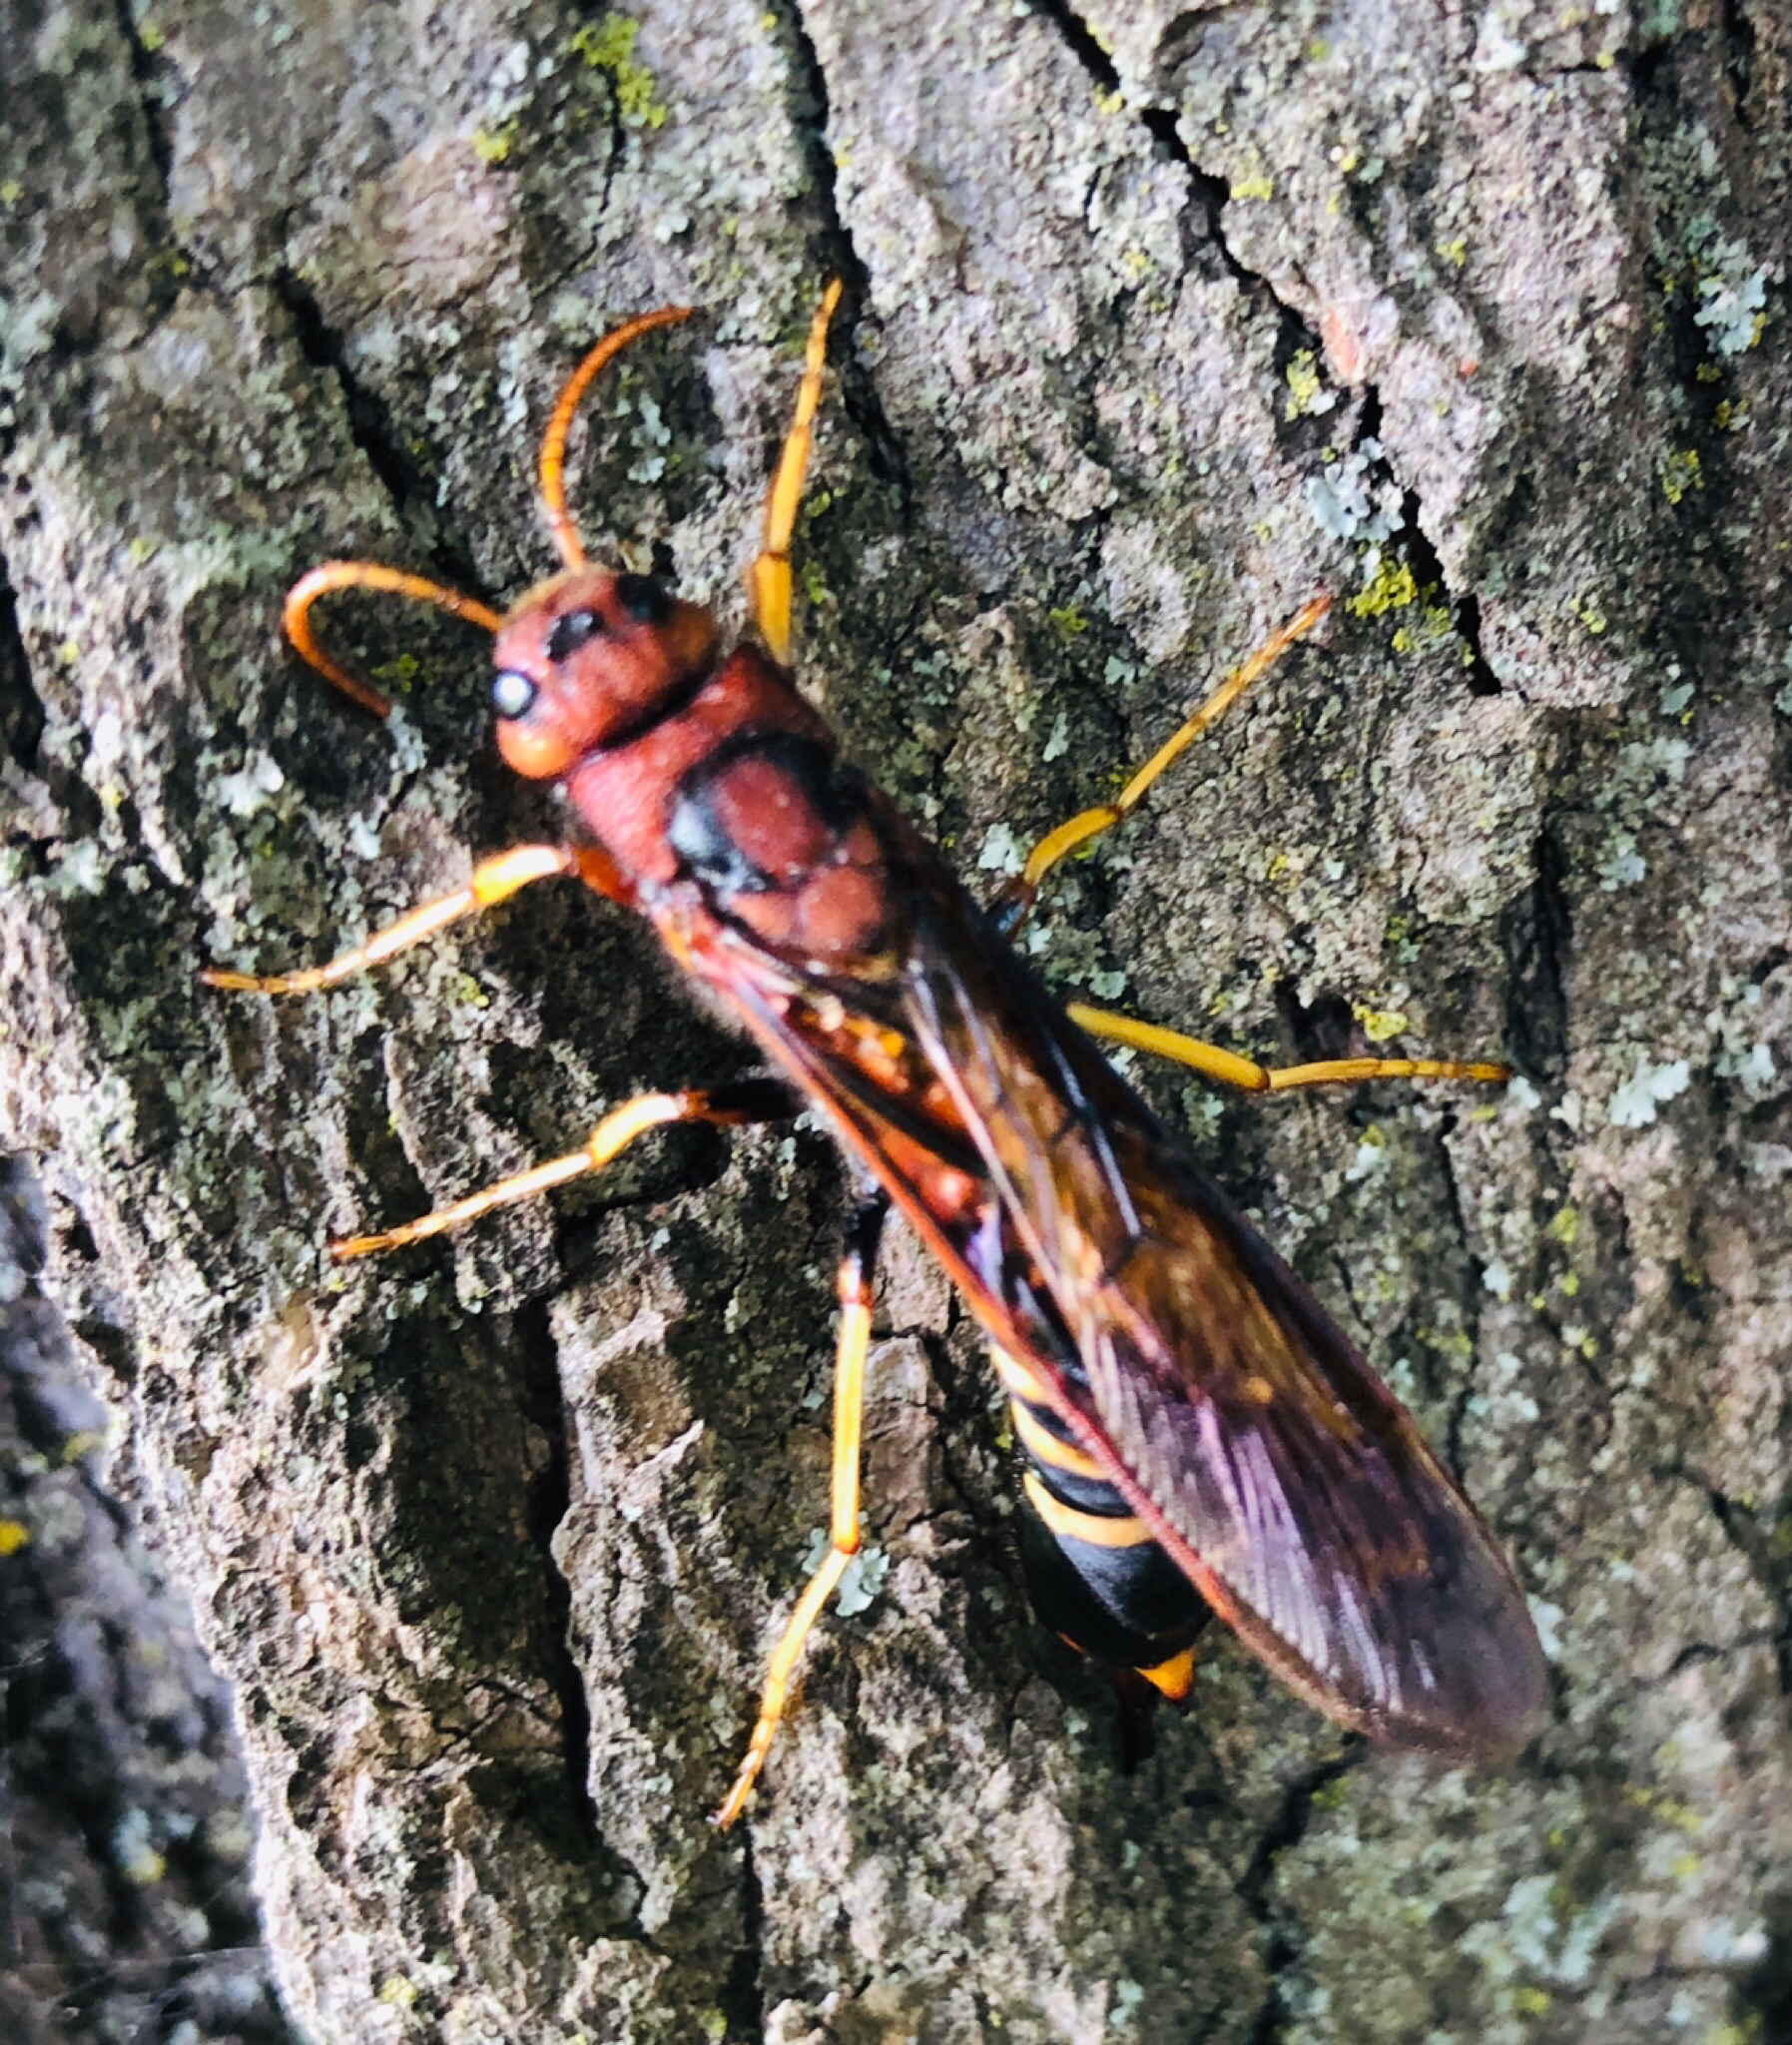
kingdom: Animalia
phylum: Arthropoda
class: Insecta
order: Hymenoptera
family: Siricidae
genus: Tremex
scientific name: Tremex columba
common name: Wasp
